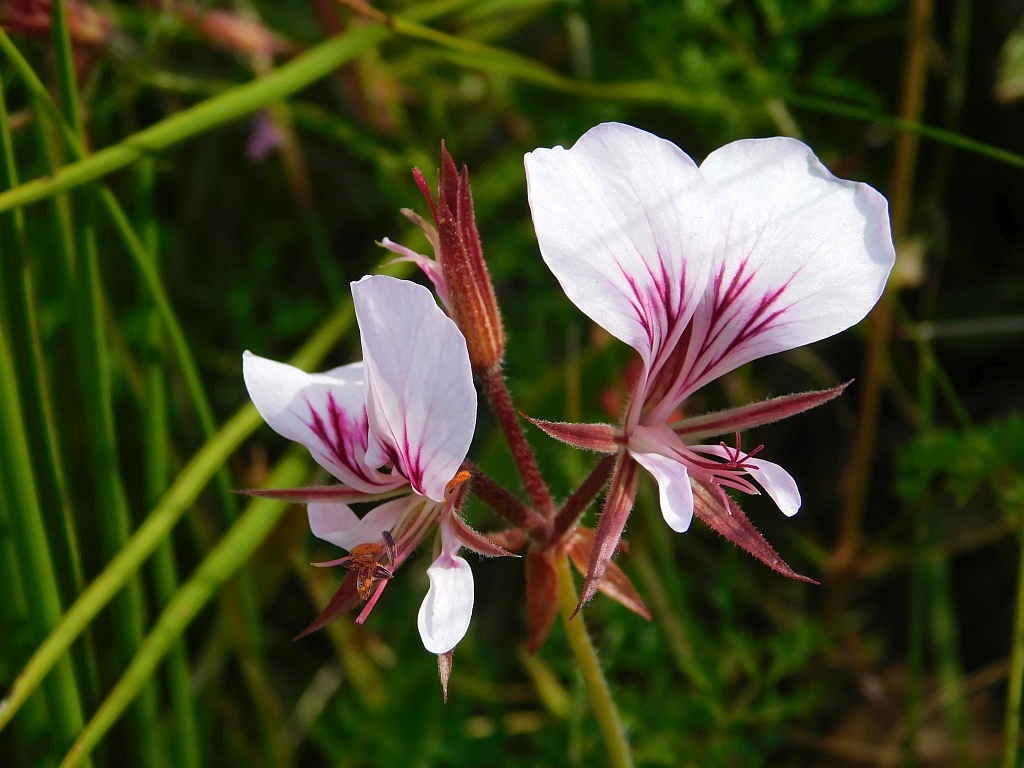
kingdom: Plantae
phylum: Tracheophyta
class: Magnoliopsida
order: Geraniales
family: Geraniaceae
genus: Pelargonium
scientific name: Pelargonium myrrhifolium
